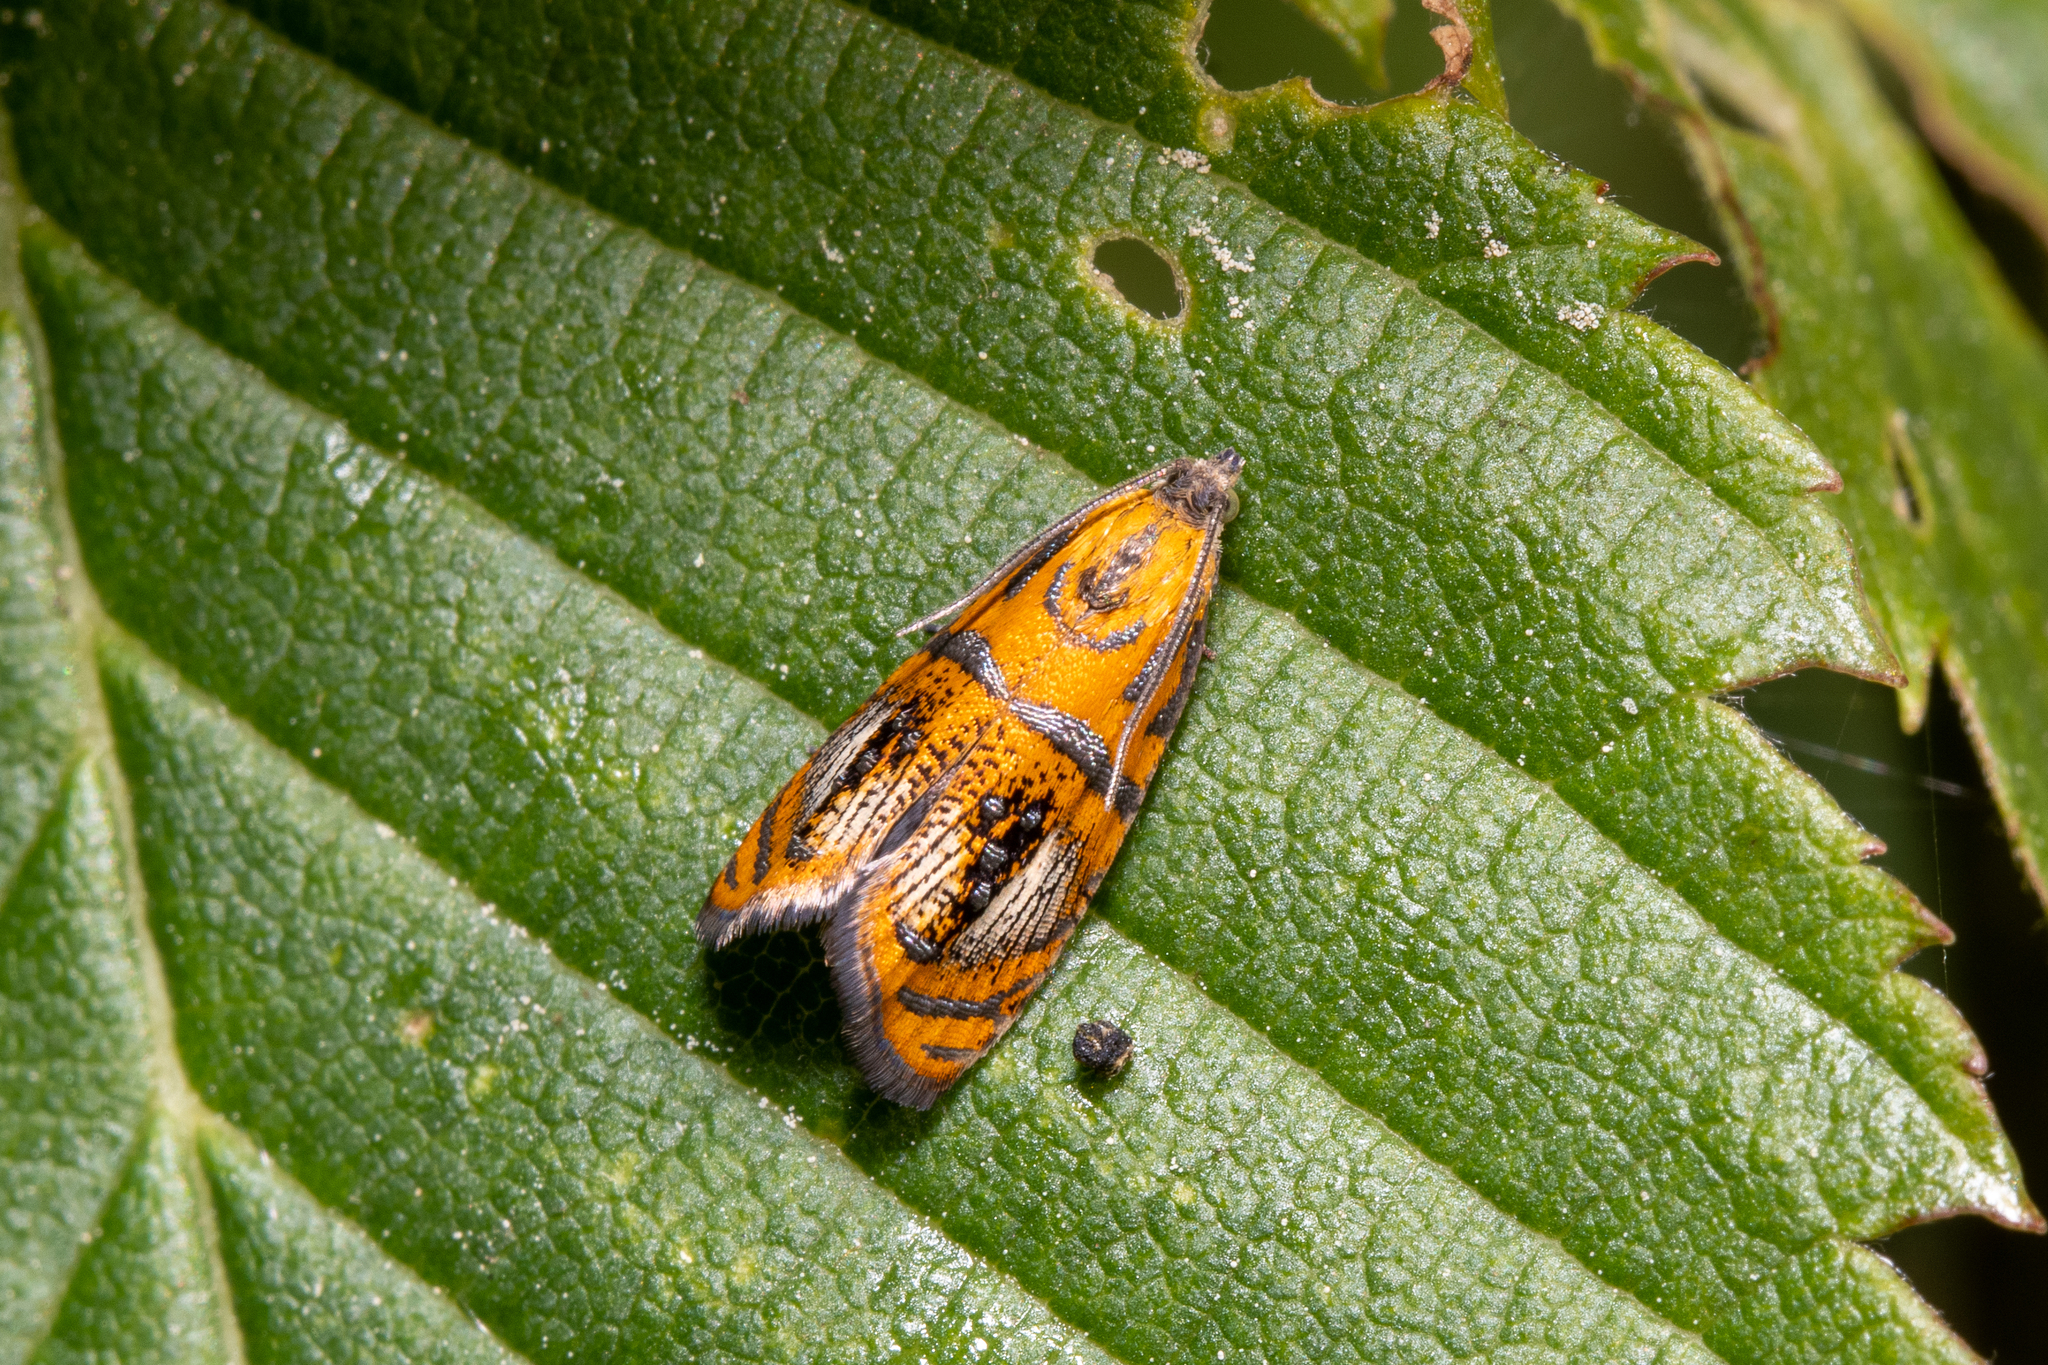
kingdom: Animalia
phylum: Arthropoda
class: Insecta
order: Lepidoptera
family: Tortricidae
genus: Olethreutes
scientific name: Olethreutes arcuella
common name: Arched marble
